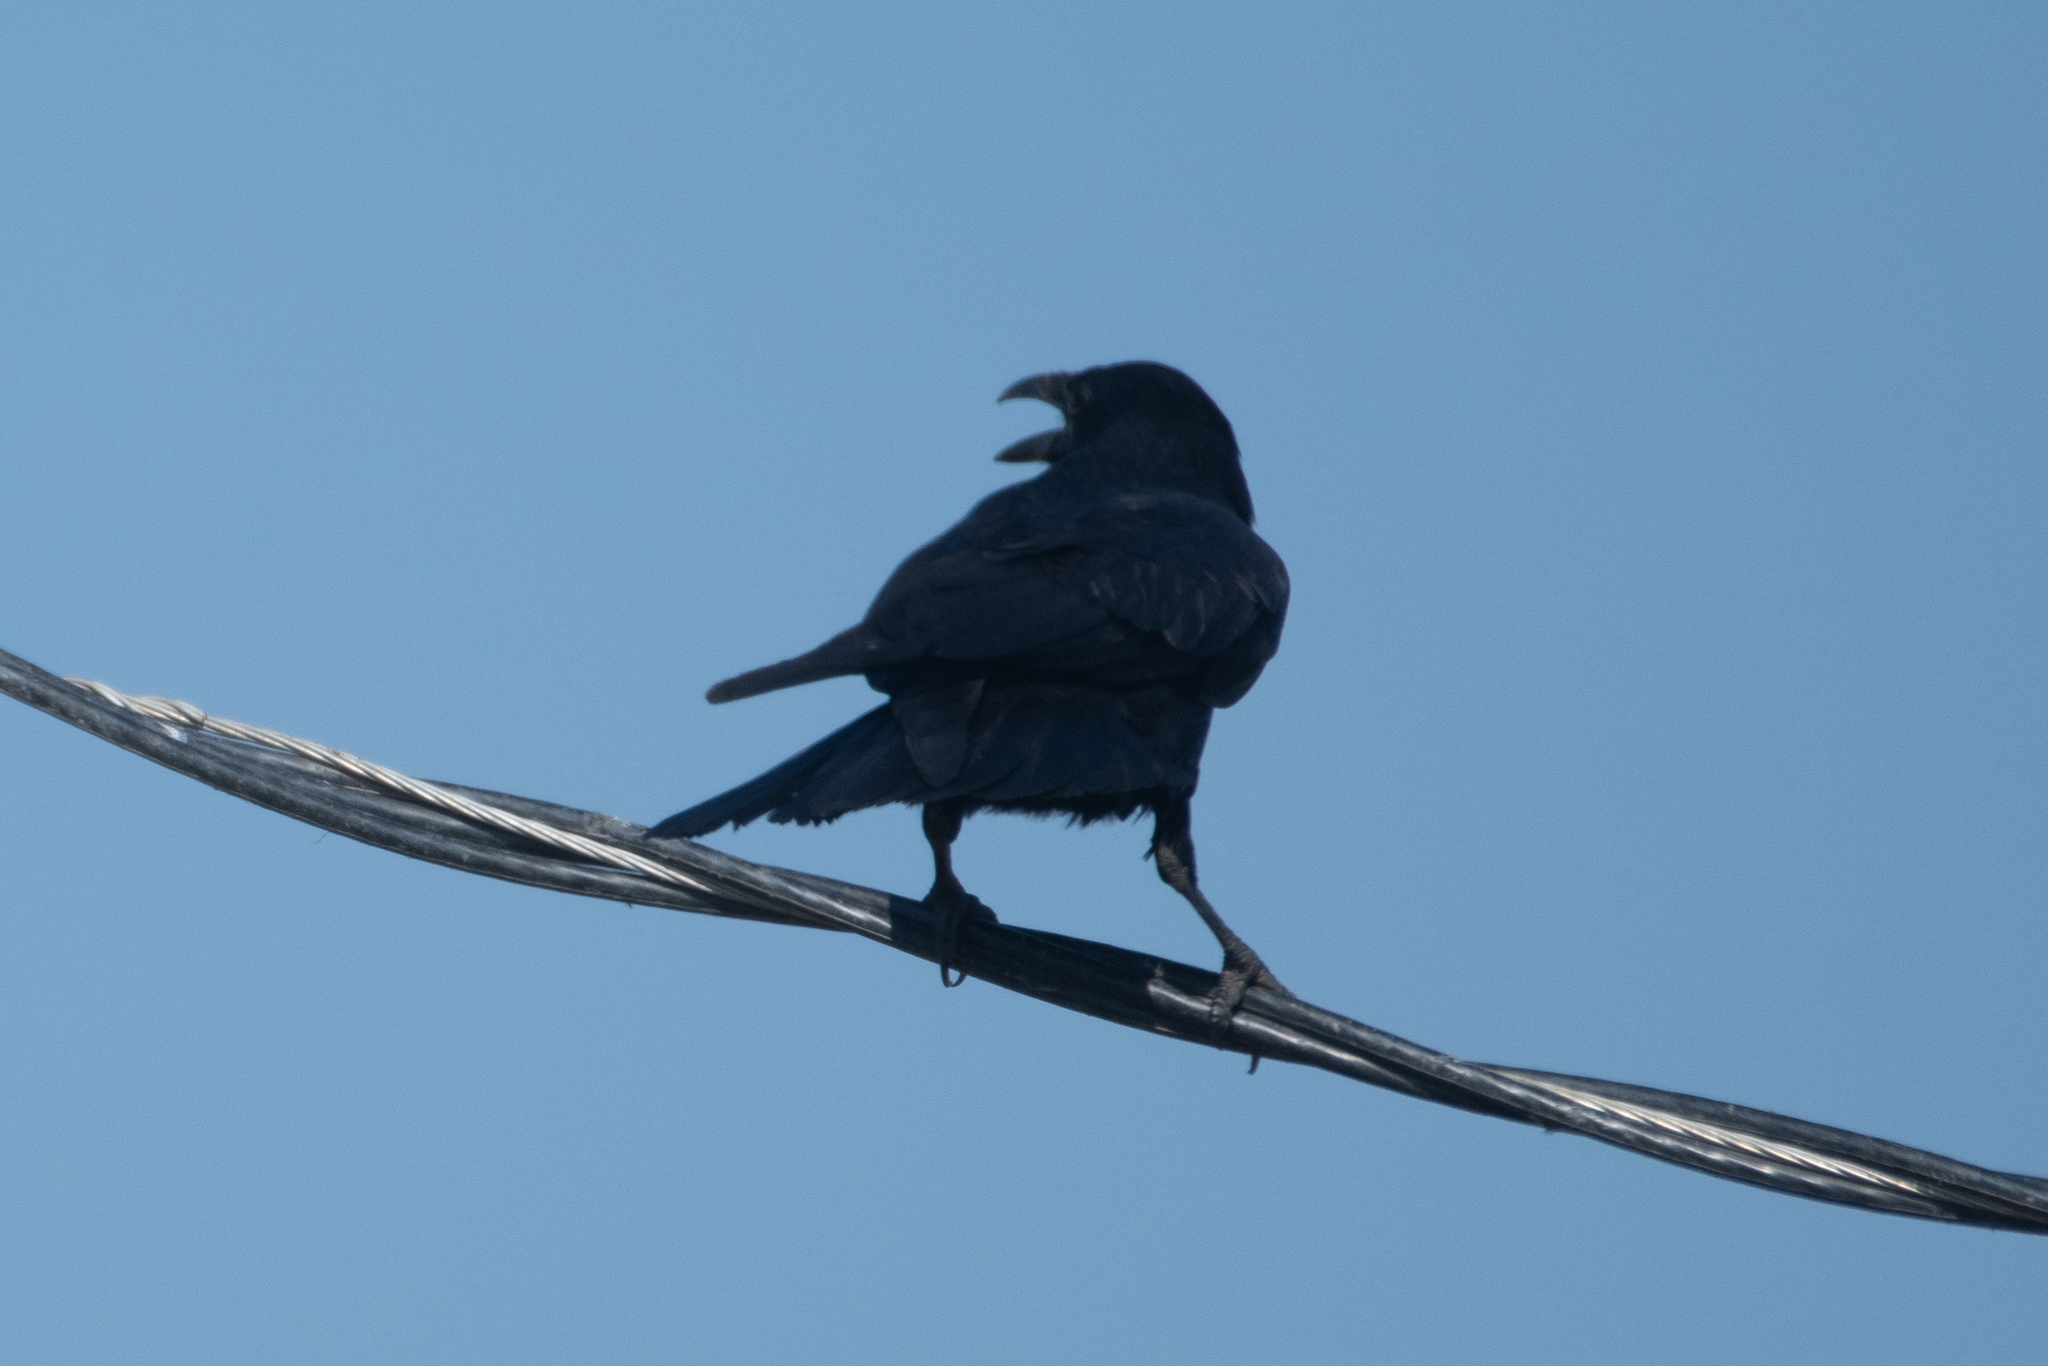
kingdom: Animalia
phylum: Chordata
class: Aves
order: Passeriformes
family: Corvidae
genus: Corvus
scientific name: Corvus corax
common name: Common raven
